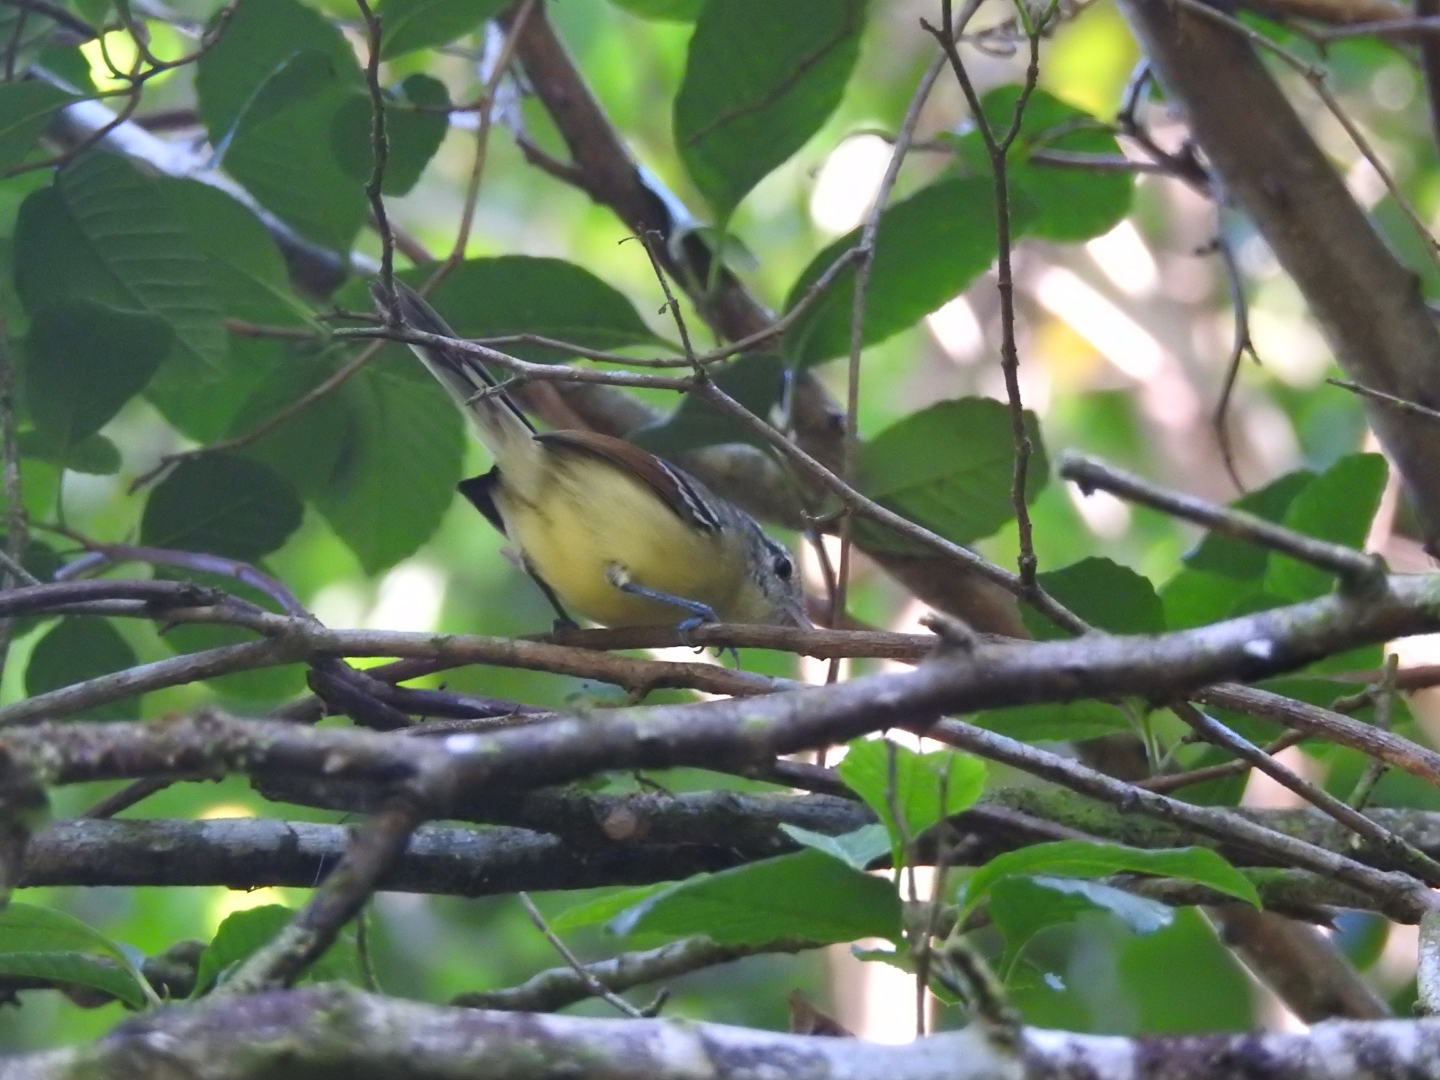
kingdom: Animalia
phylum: Chordata
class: Aves
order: Passeriformes
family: Thamnophilidae
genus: Herpsilochmus
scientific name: Herpsilochmus rufimarginatus
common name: Rufous-winged antwren
